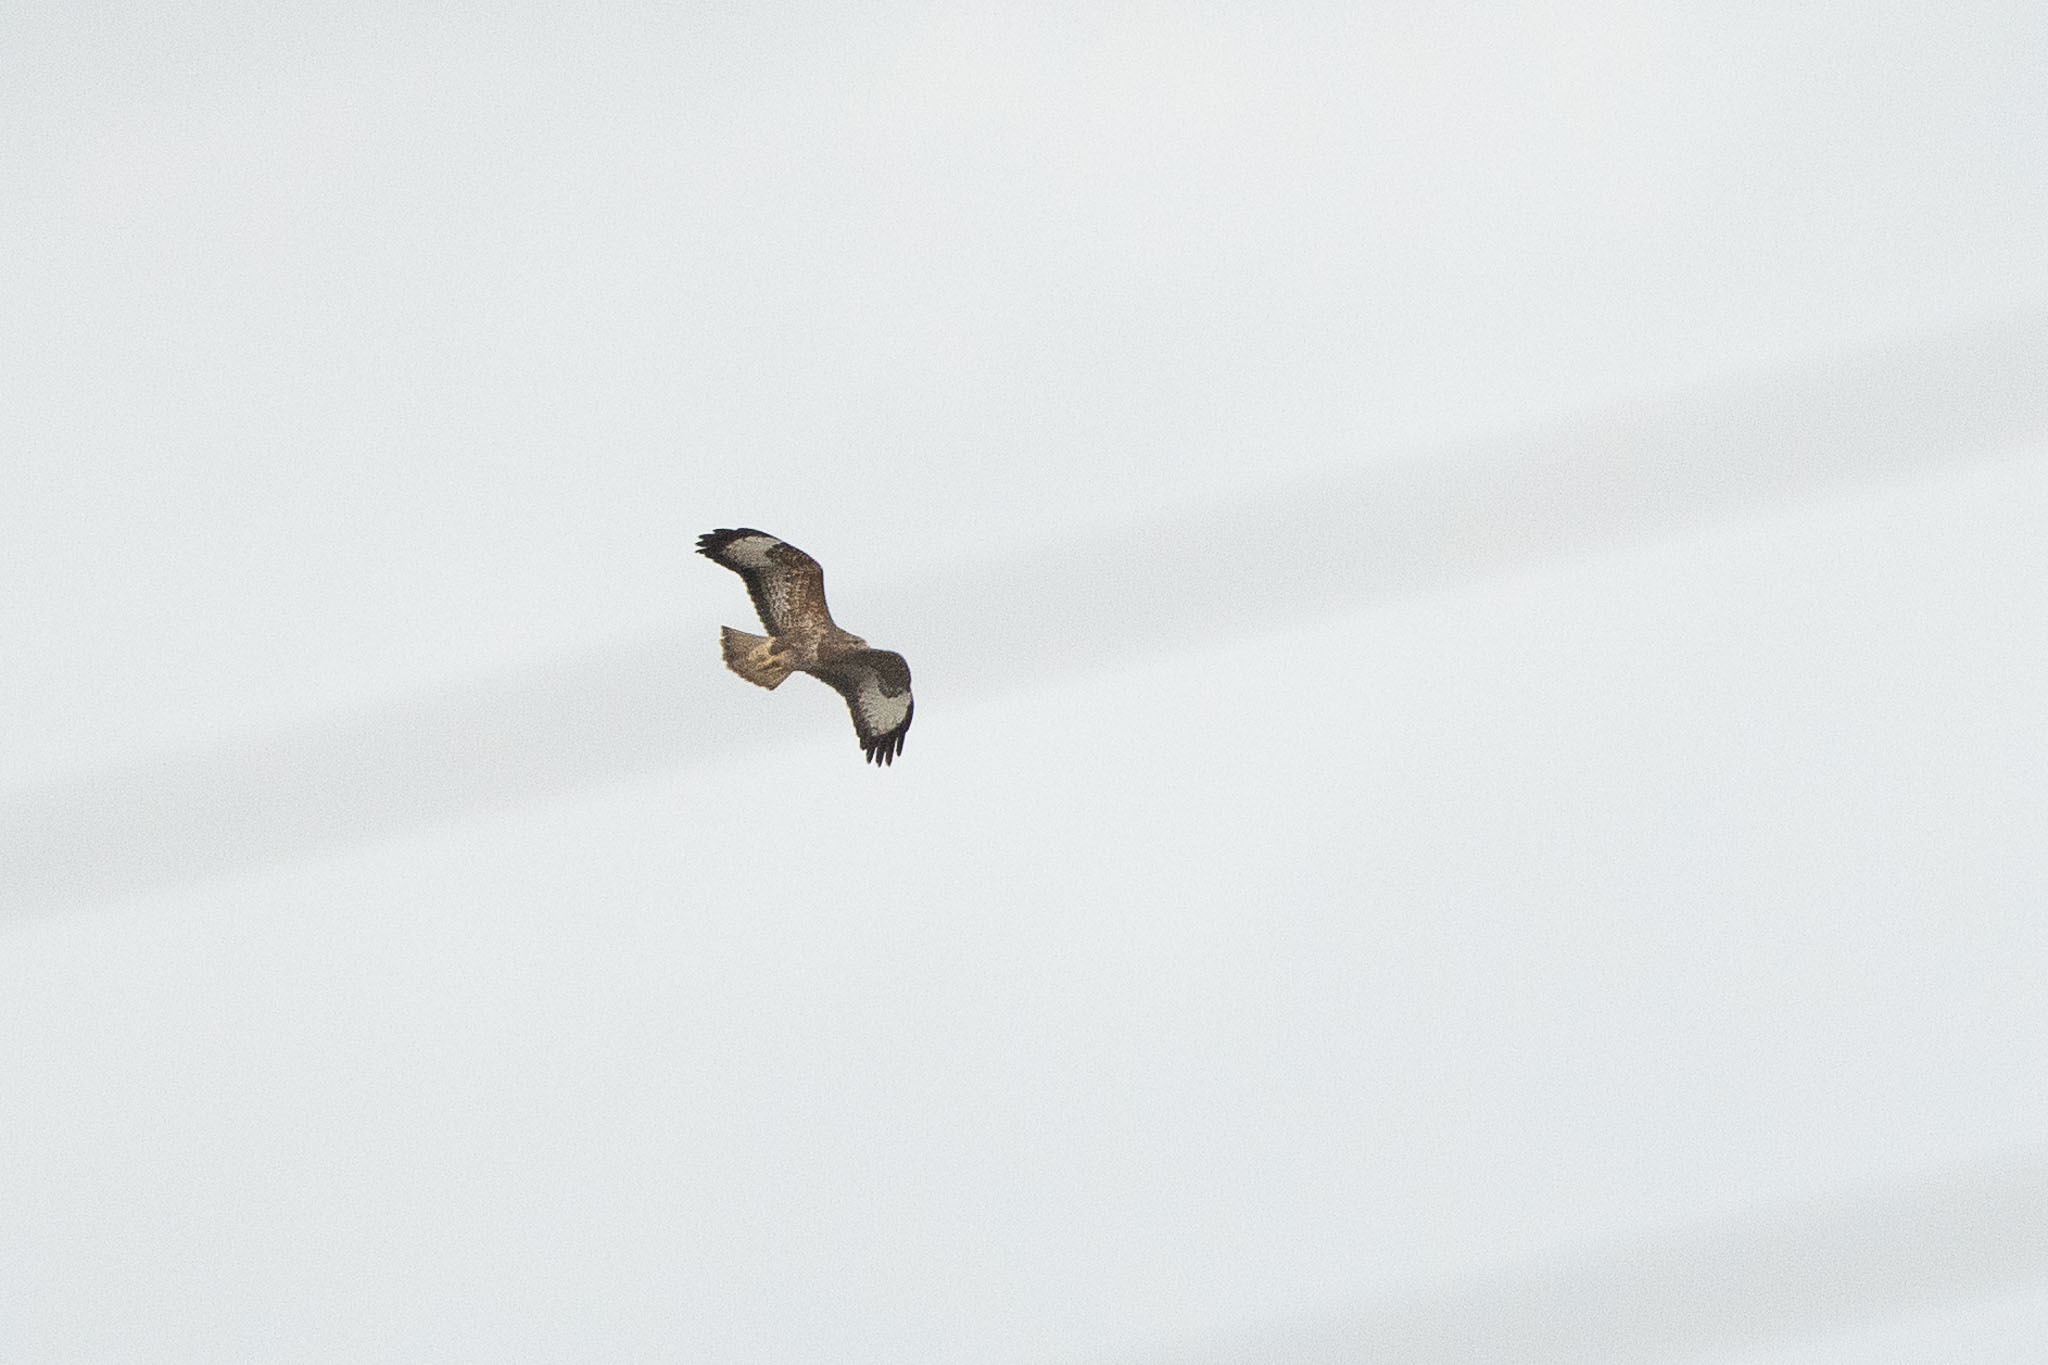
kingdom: Animalia
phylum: Chordata
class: Aves
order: Accipitriformes
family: Accipitridae
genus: Buteo
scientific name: Buteo buteo
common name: Common buzzard
